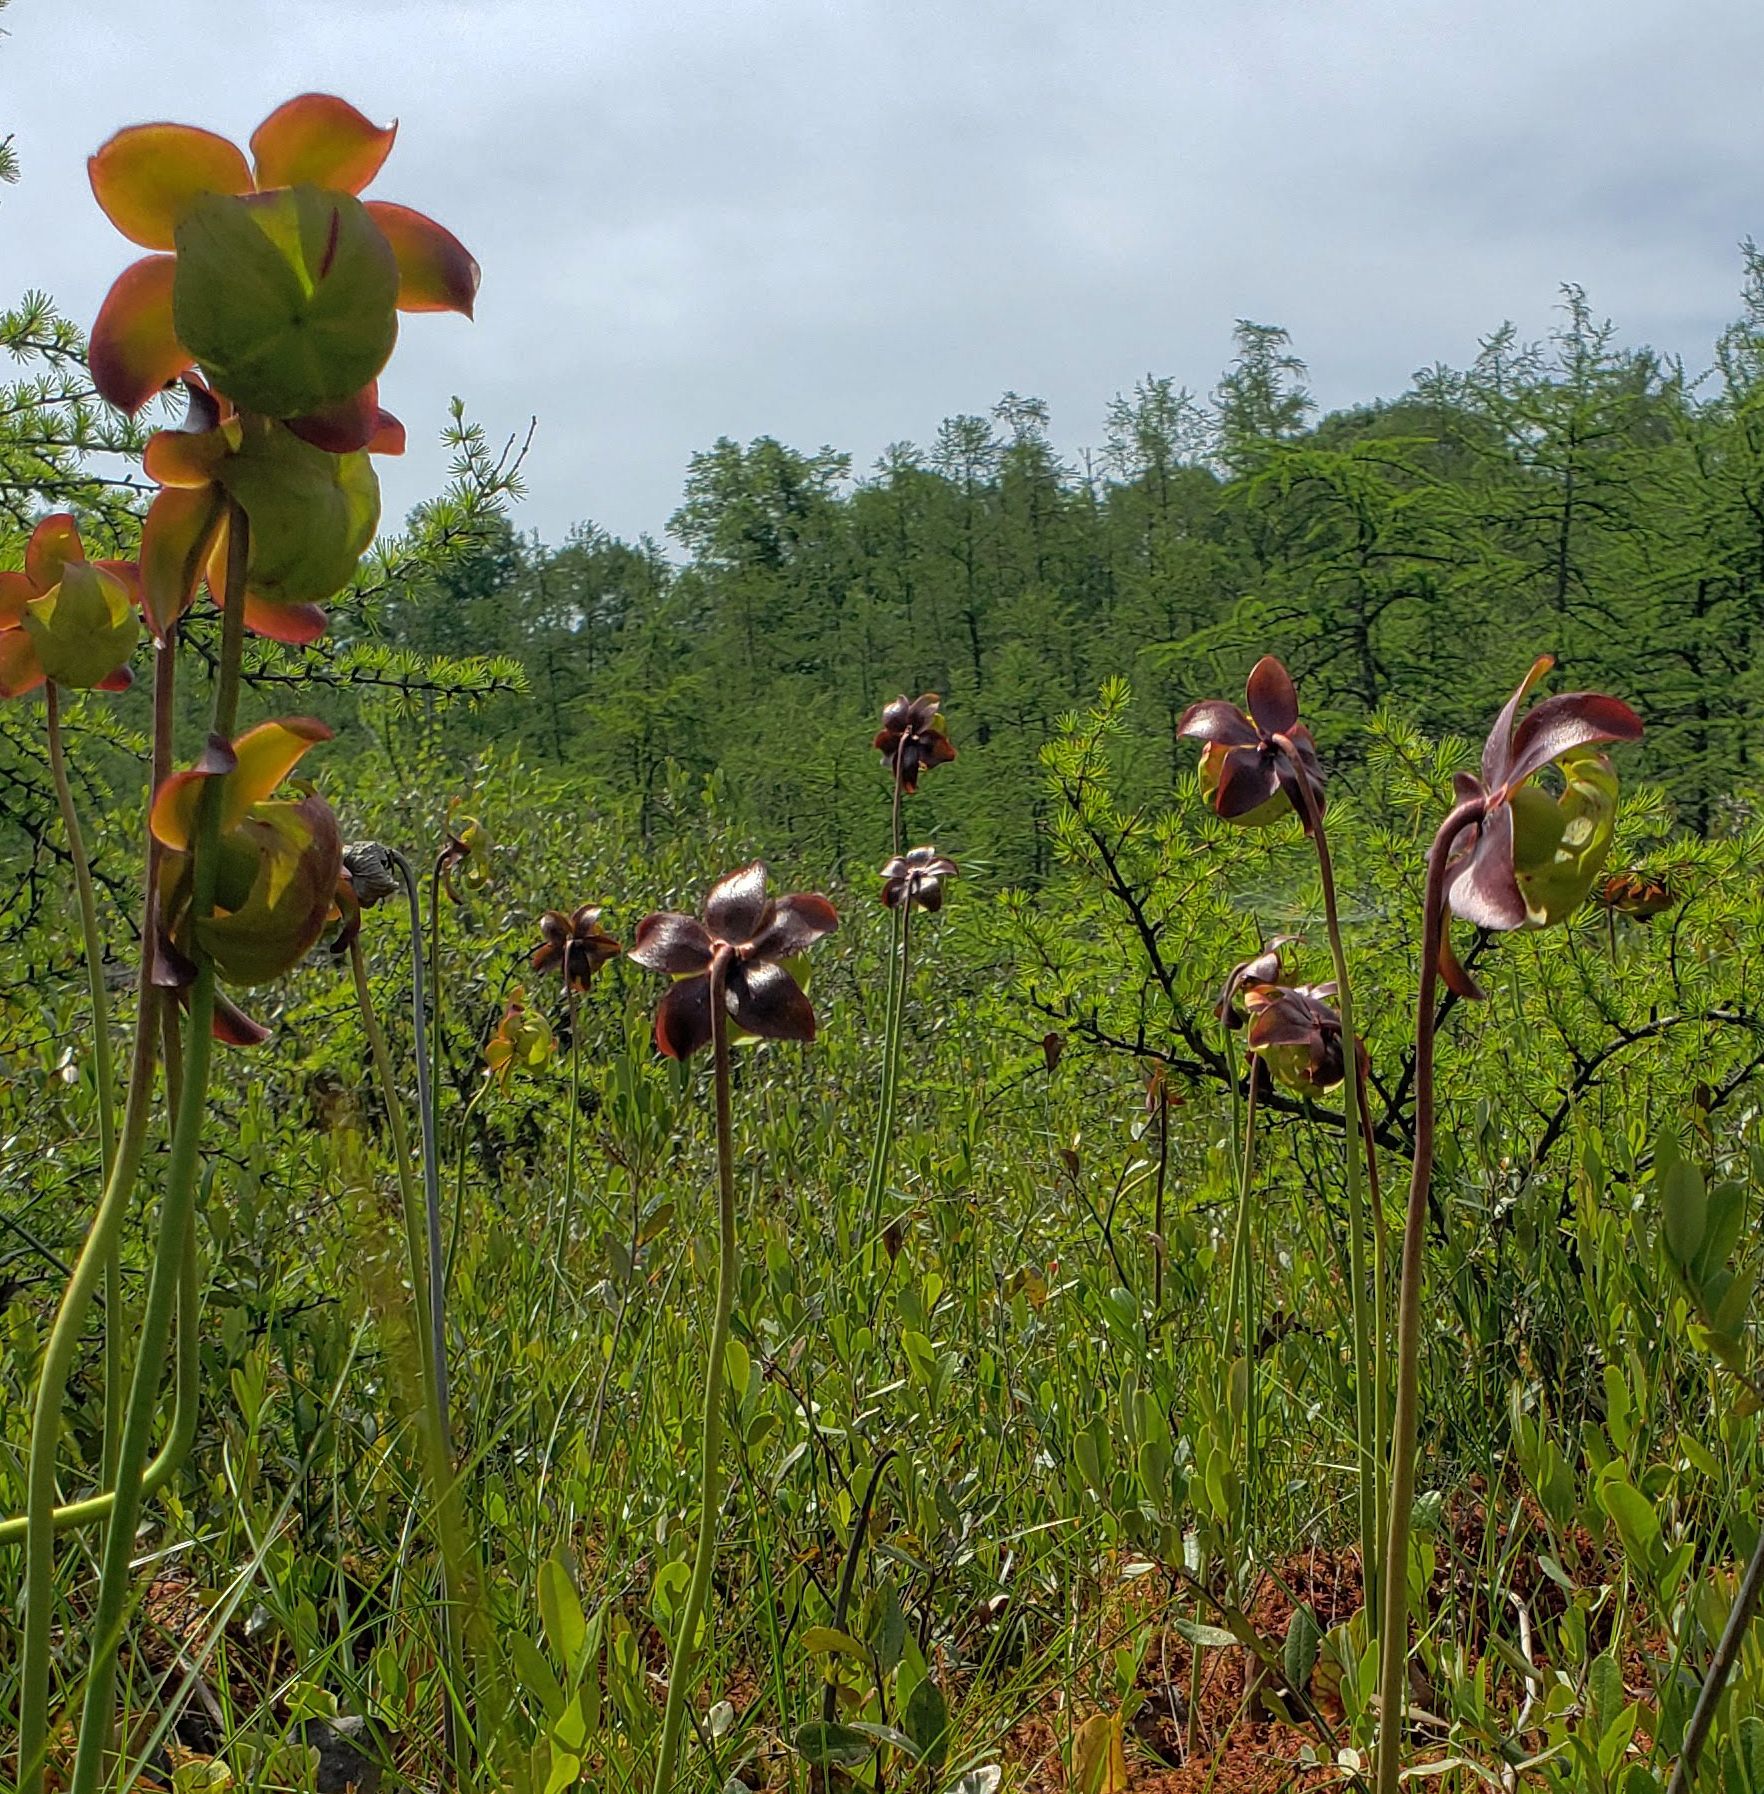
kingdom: Plantae
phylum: Tracheophyta
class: Magnoliopsida
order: Ericales
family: Sarraceniaceae
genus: Sarracenia
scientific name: Sarracenia purpurea
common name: Pitcherplant
